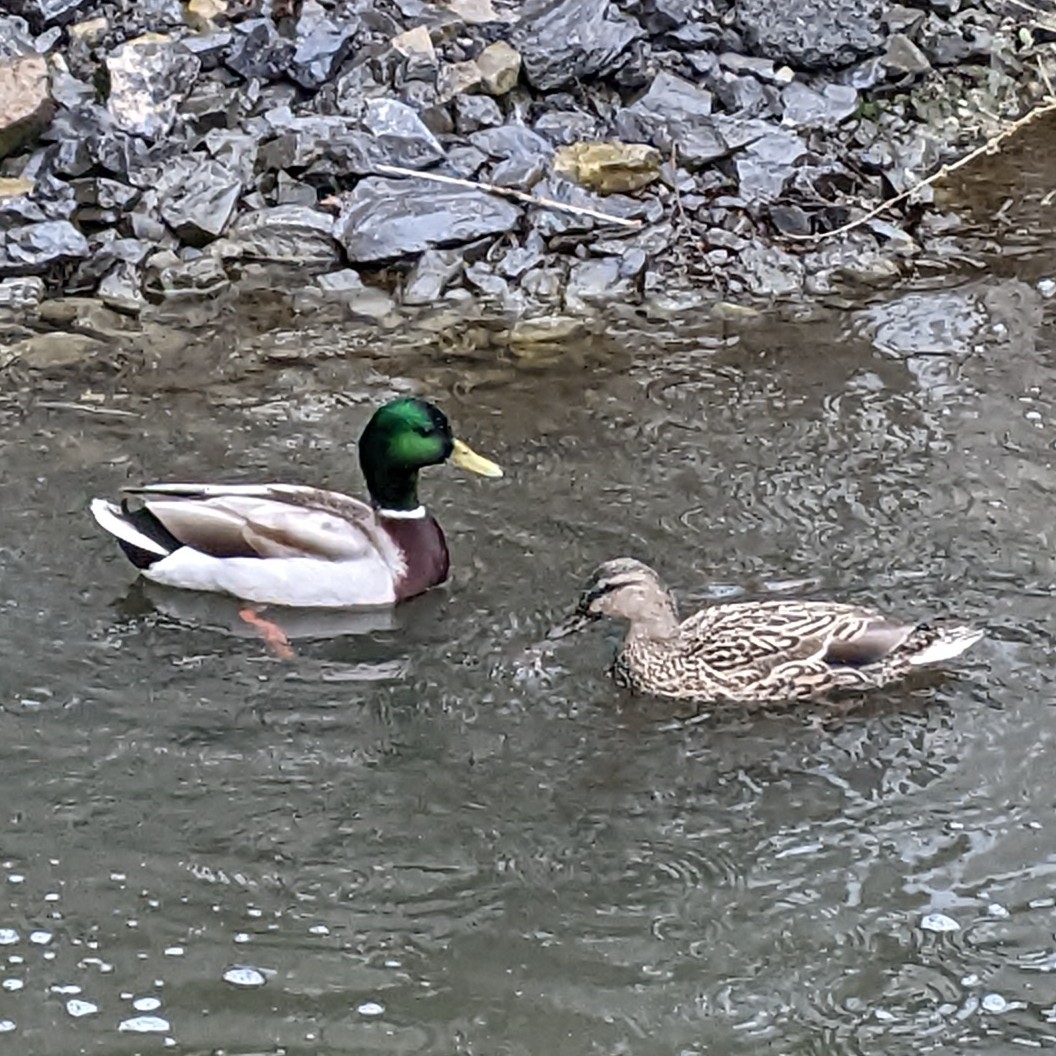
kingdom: Animalia
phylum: Chordata
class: Aves
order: Anseriformes
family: Anatidae
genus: Anas
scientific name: Anas platyrhynchos
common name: Mallard
